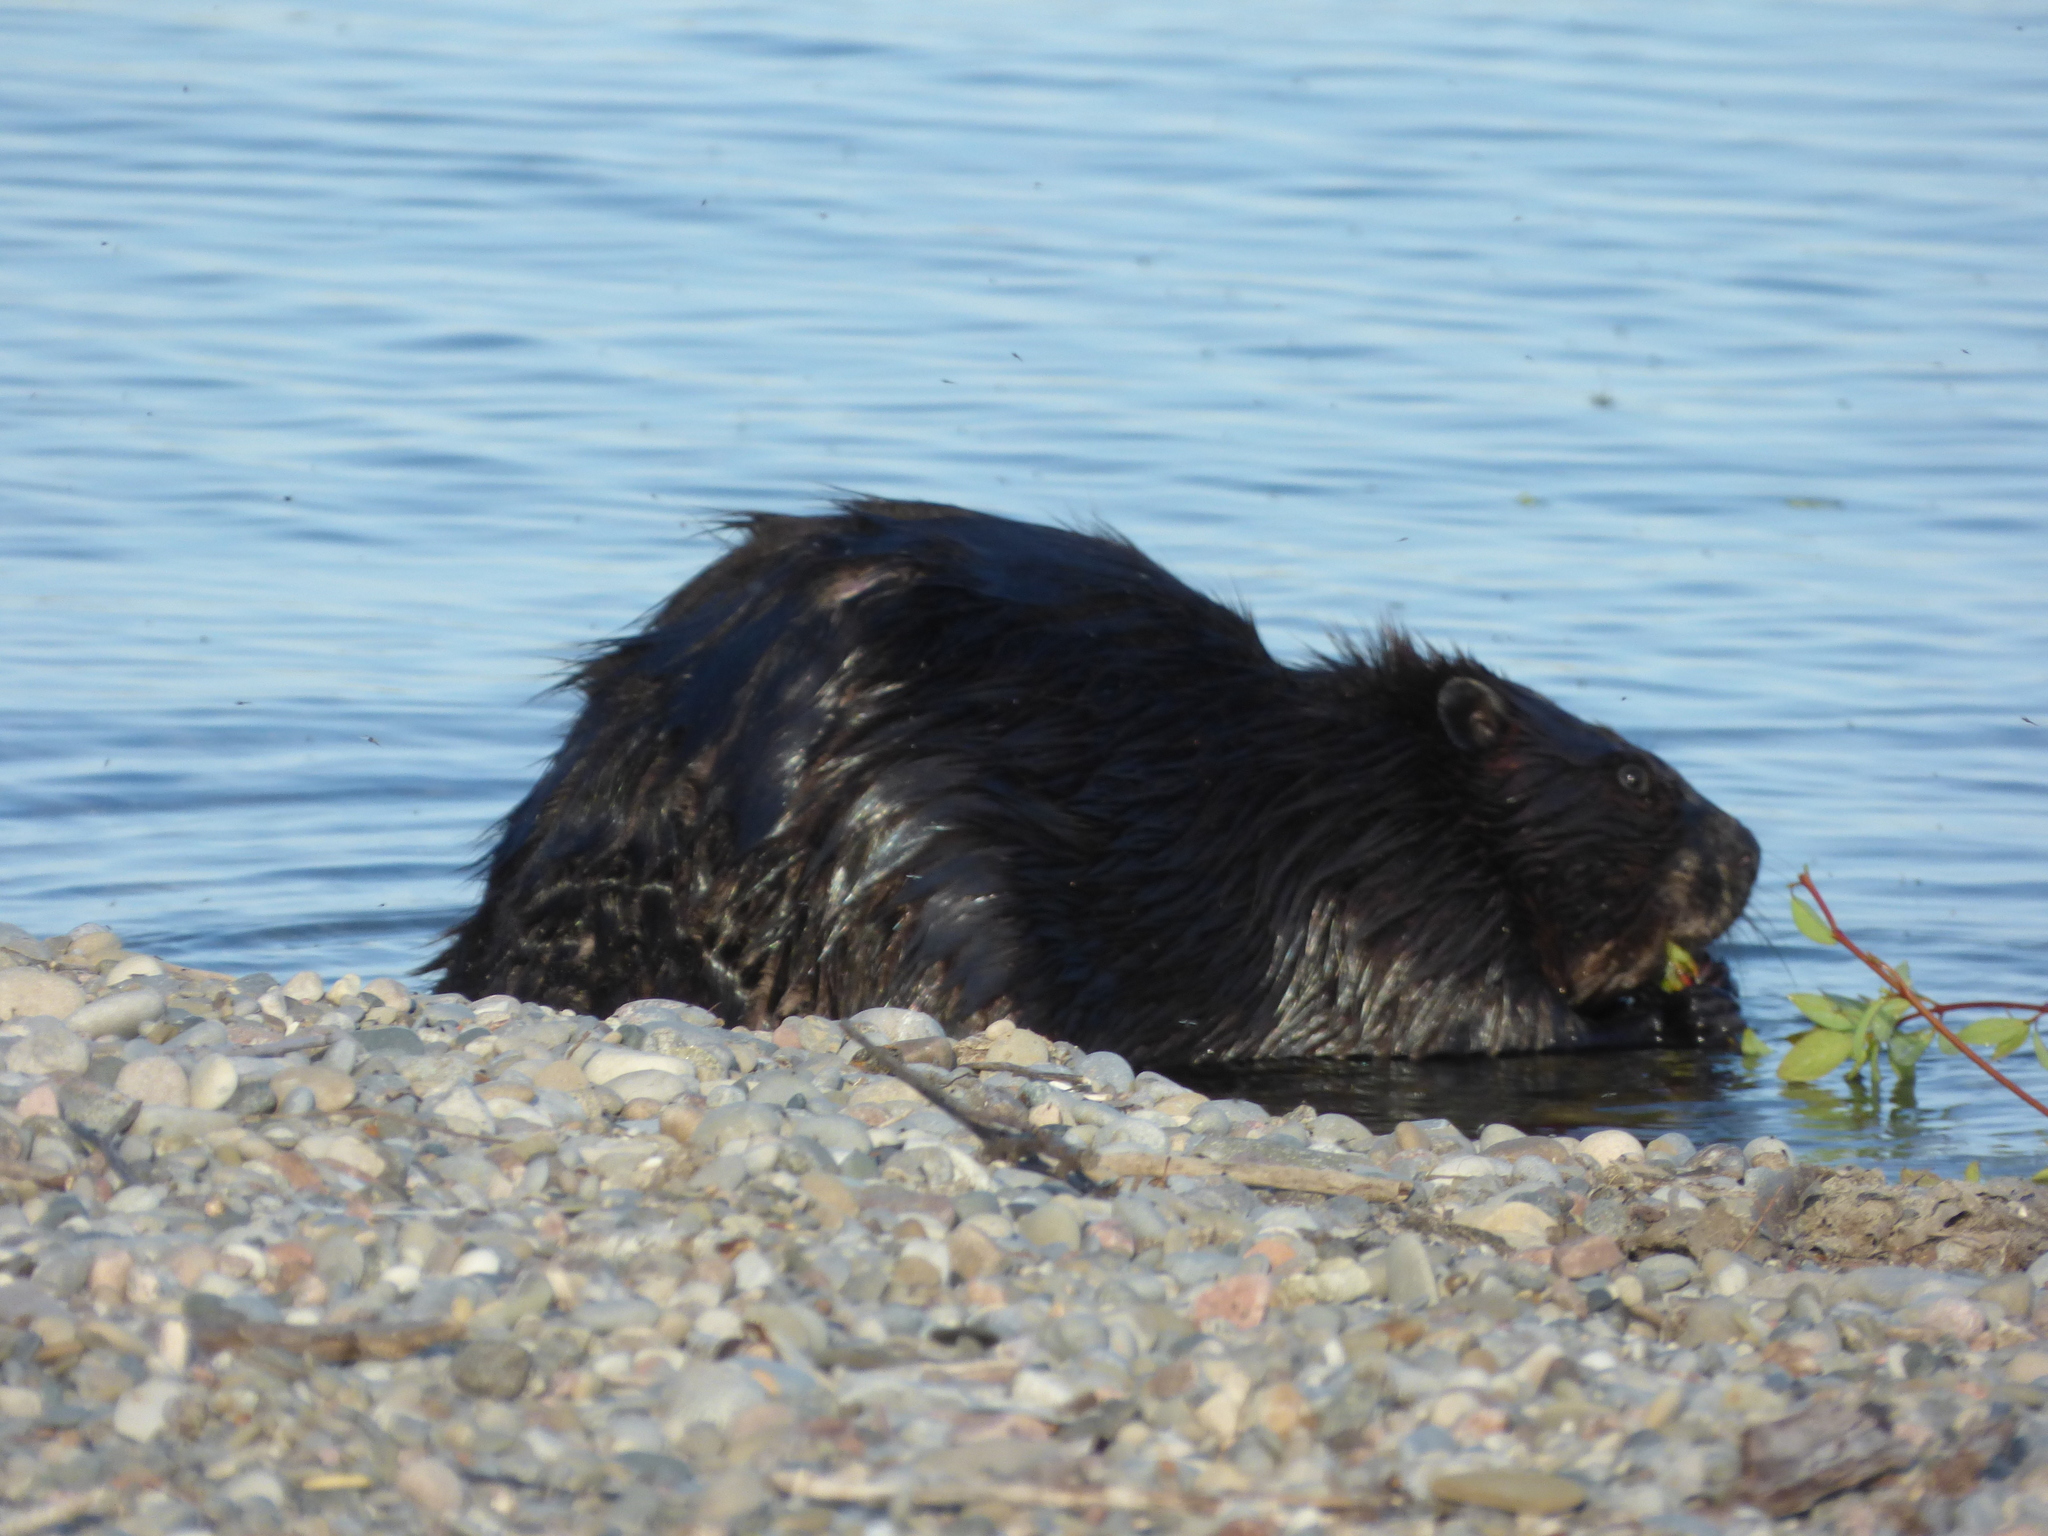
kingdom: Animalia
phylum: Chordata
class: Mammalia
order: Rodentia
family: Castoridae
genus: Castor
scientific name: Castor canadensis
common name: American beaver
